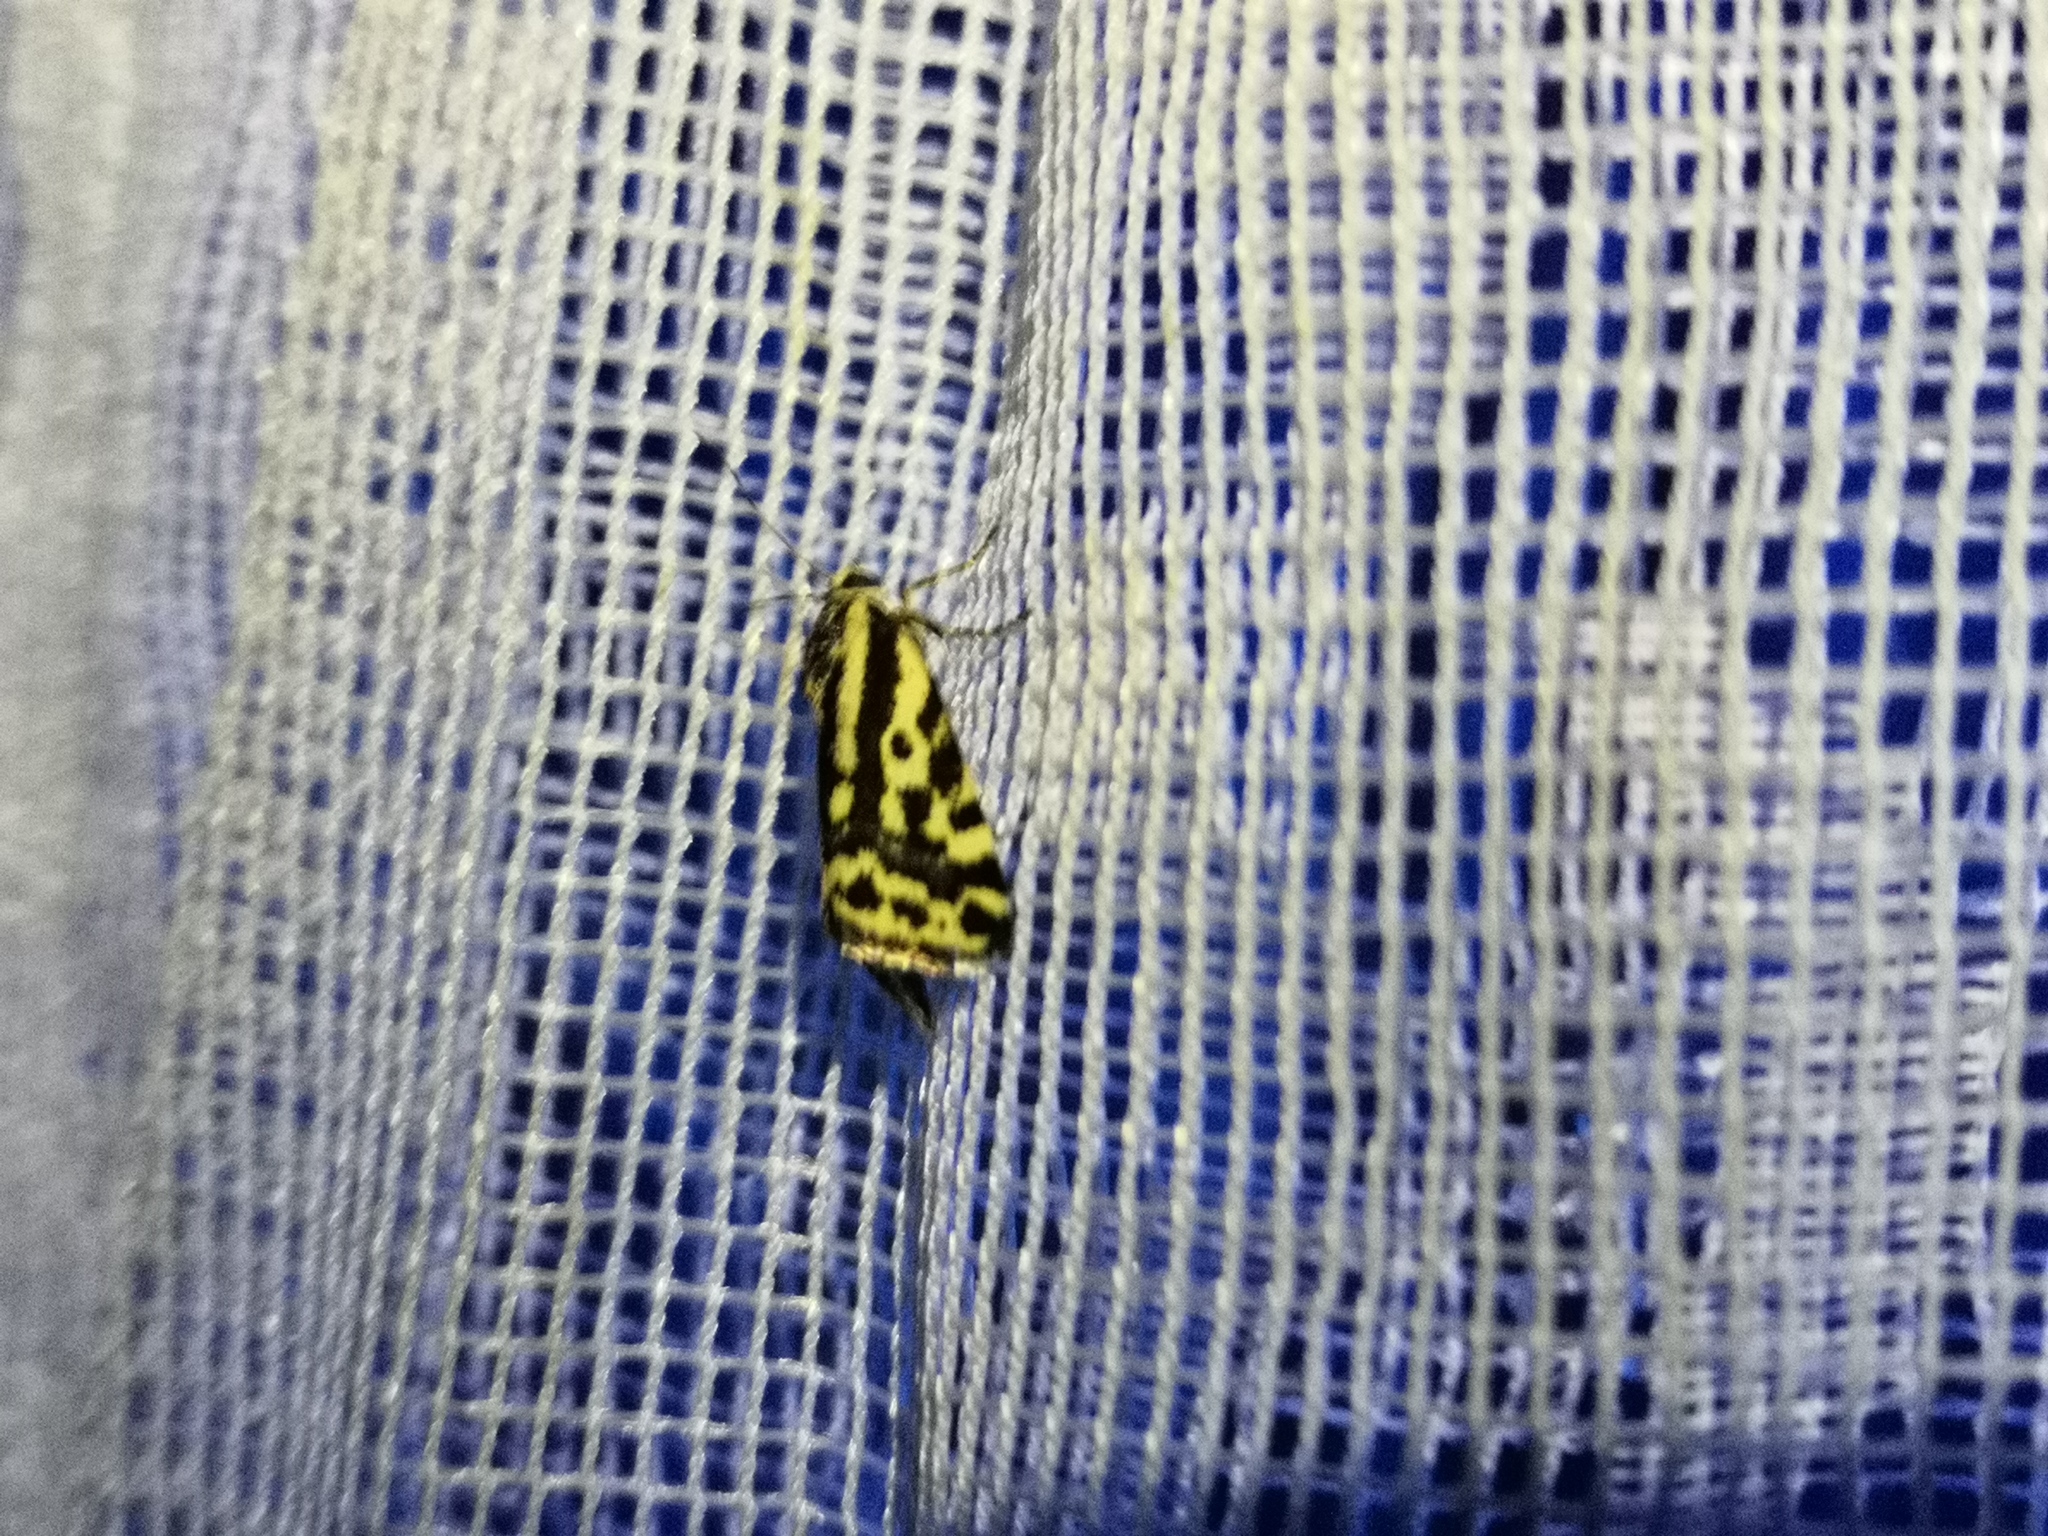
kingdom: Animalia
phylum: Arthropoda
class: Insecta
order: Lepidoptera
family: Noctuidae
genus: Acontia
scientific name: Acontia trabealis
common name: Spotted sulphur
